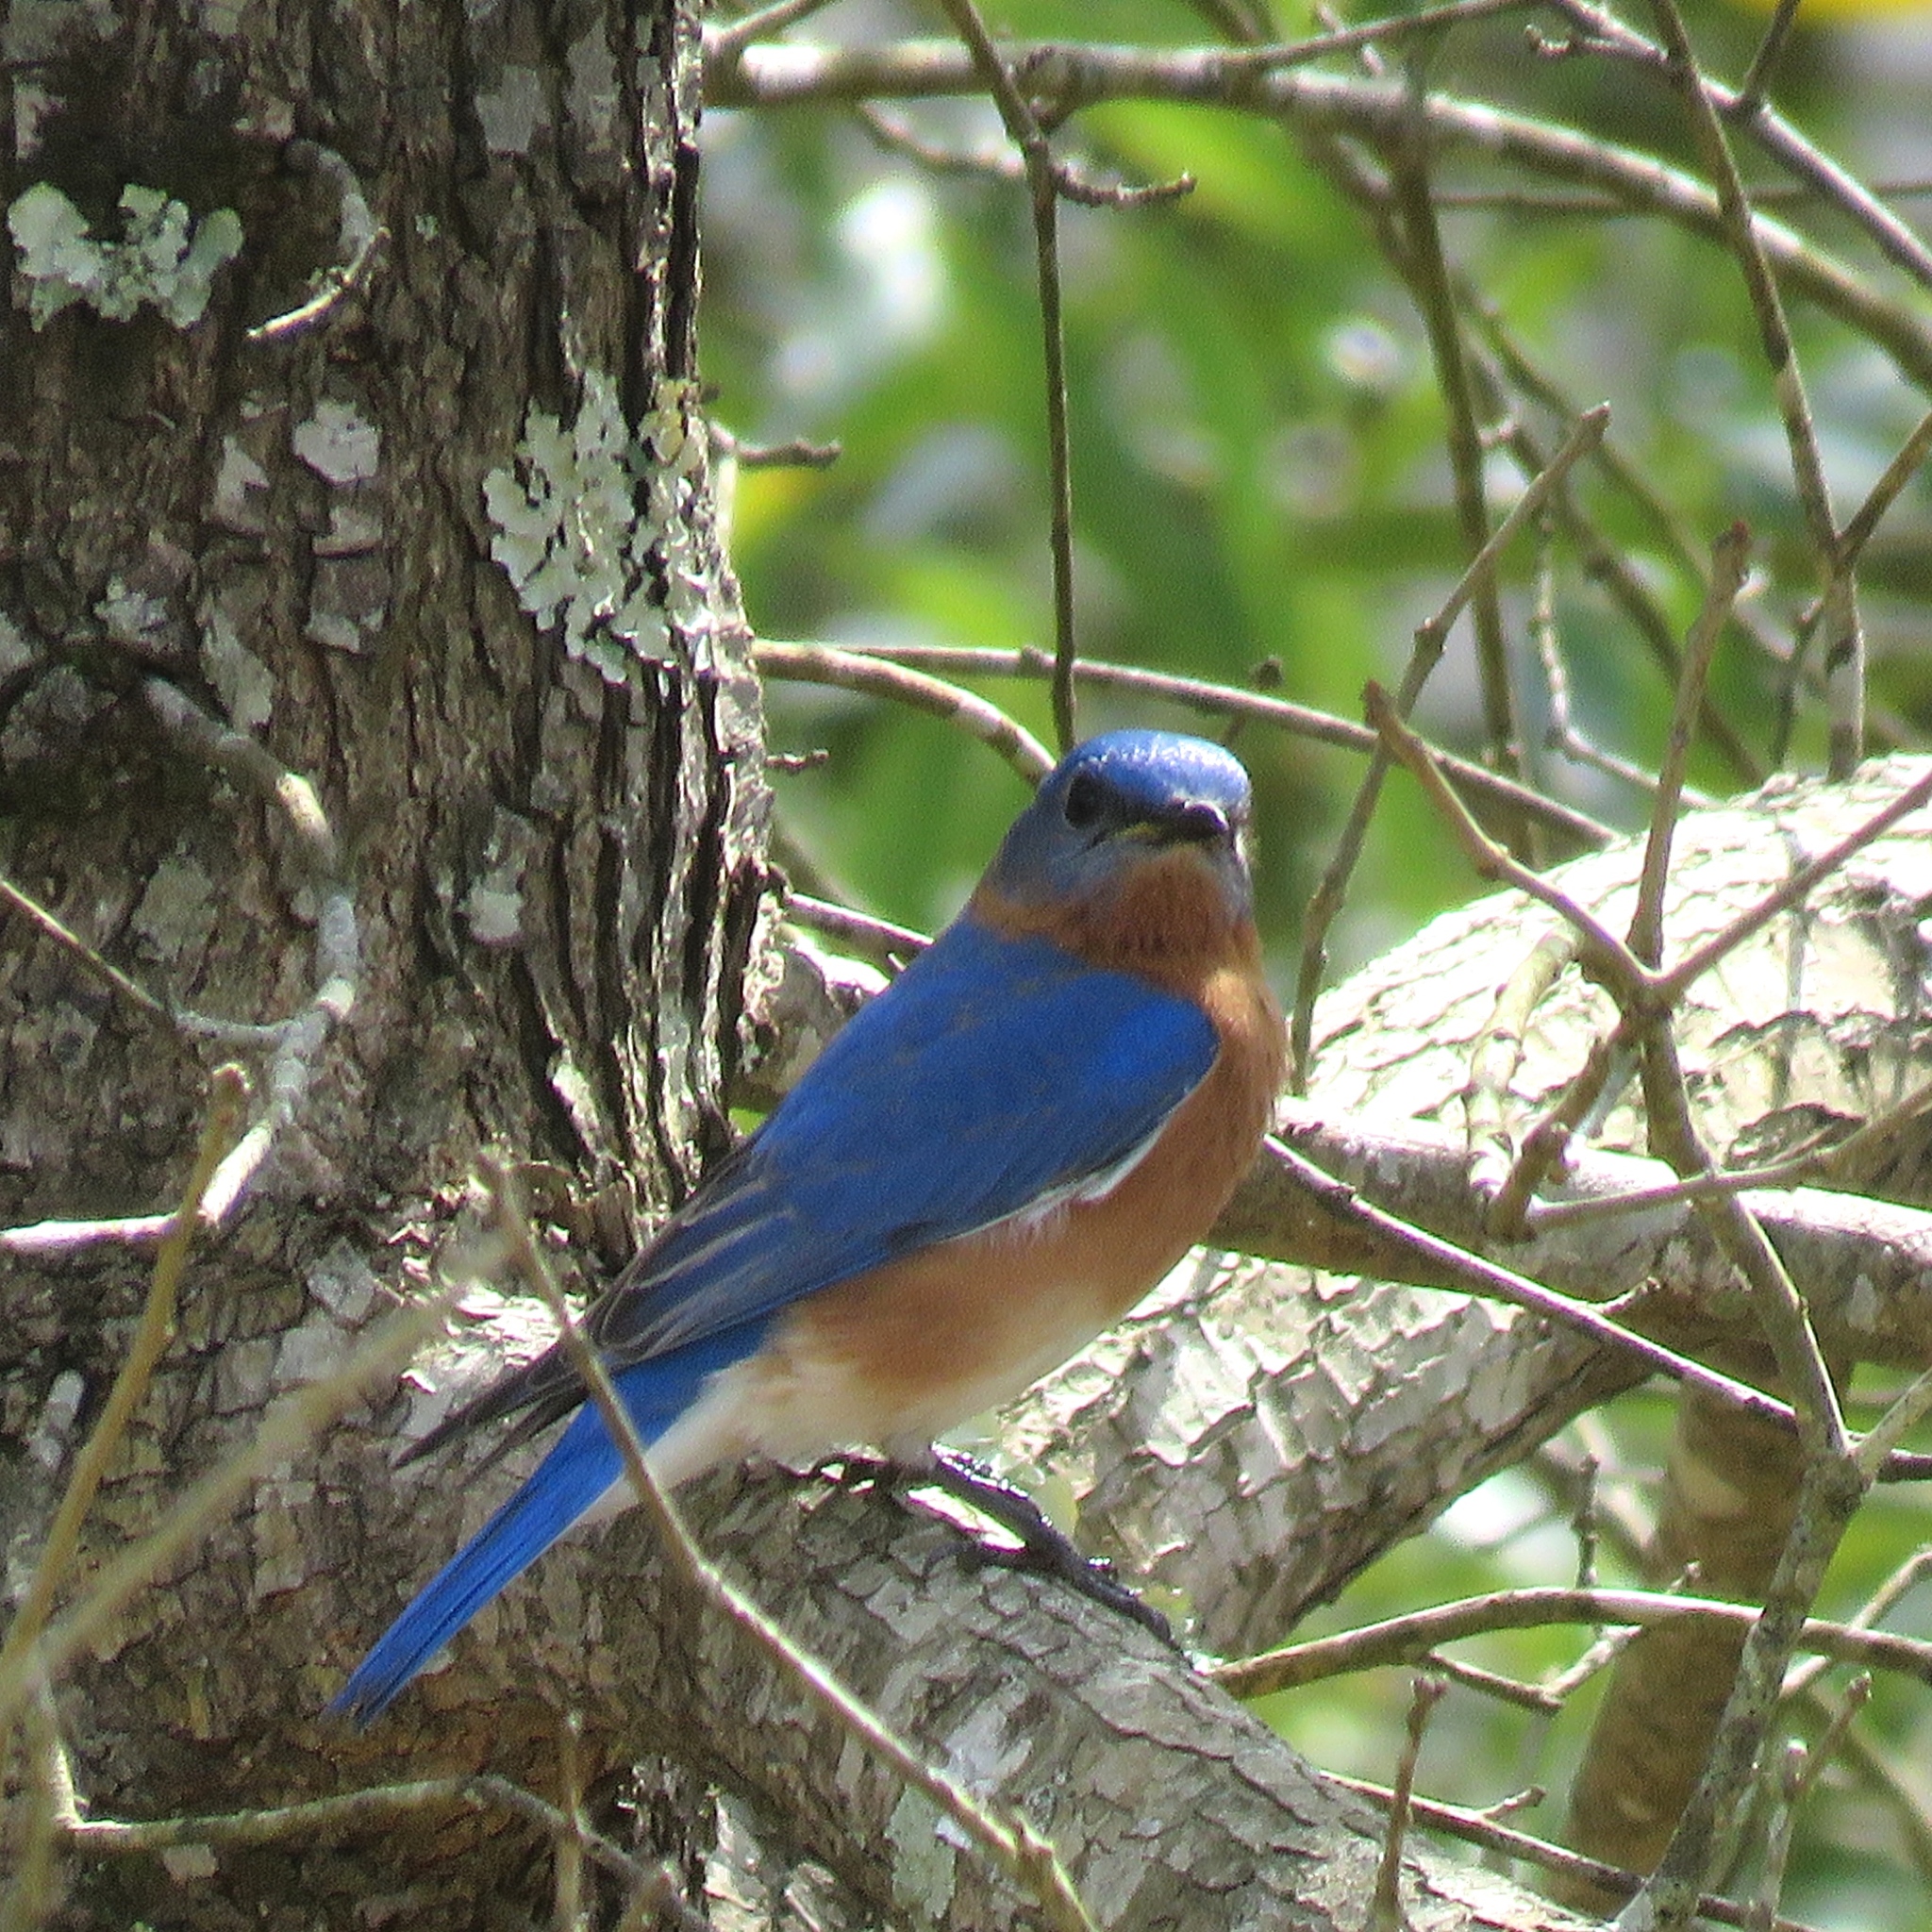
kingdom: Animalia
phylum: Chordata
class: Aves
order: Passeriformes
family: Turdidae
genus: Sialia
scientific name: Sialia sialis
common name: Eastern bluebird
